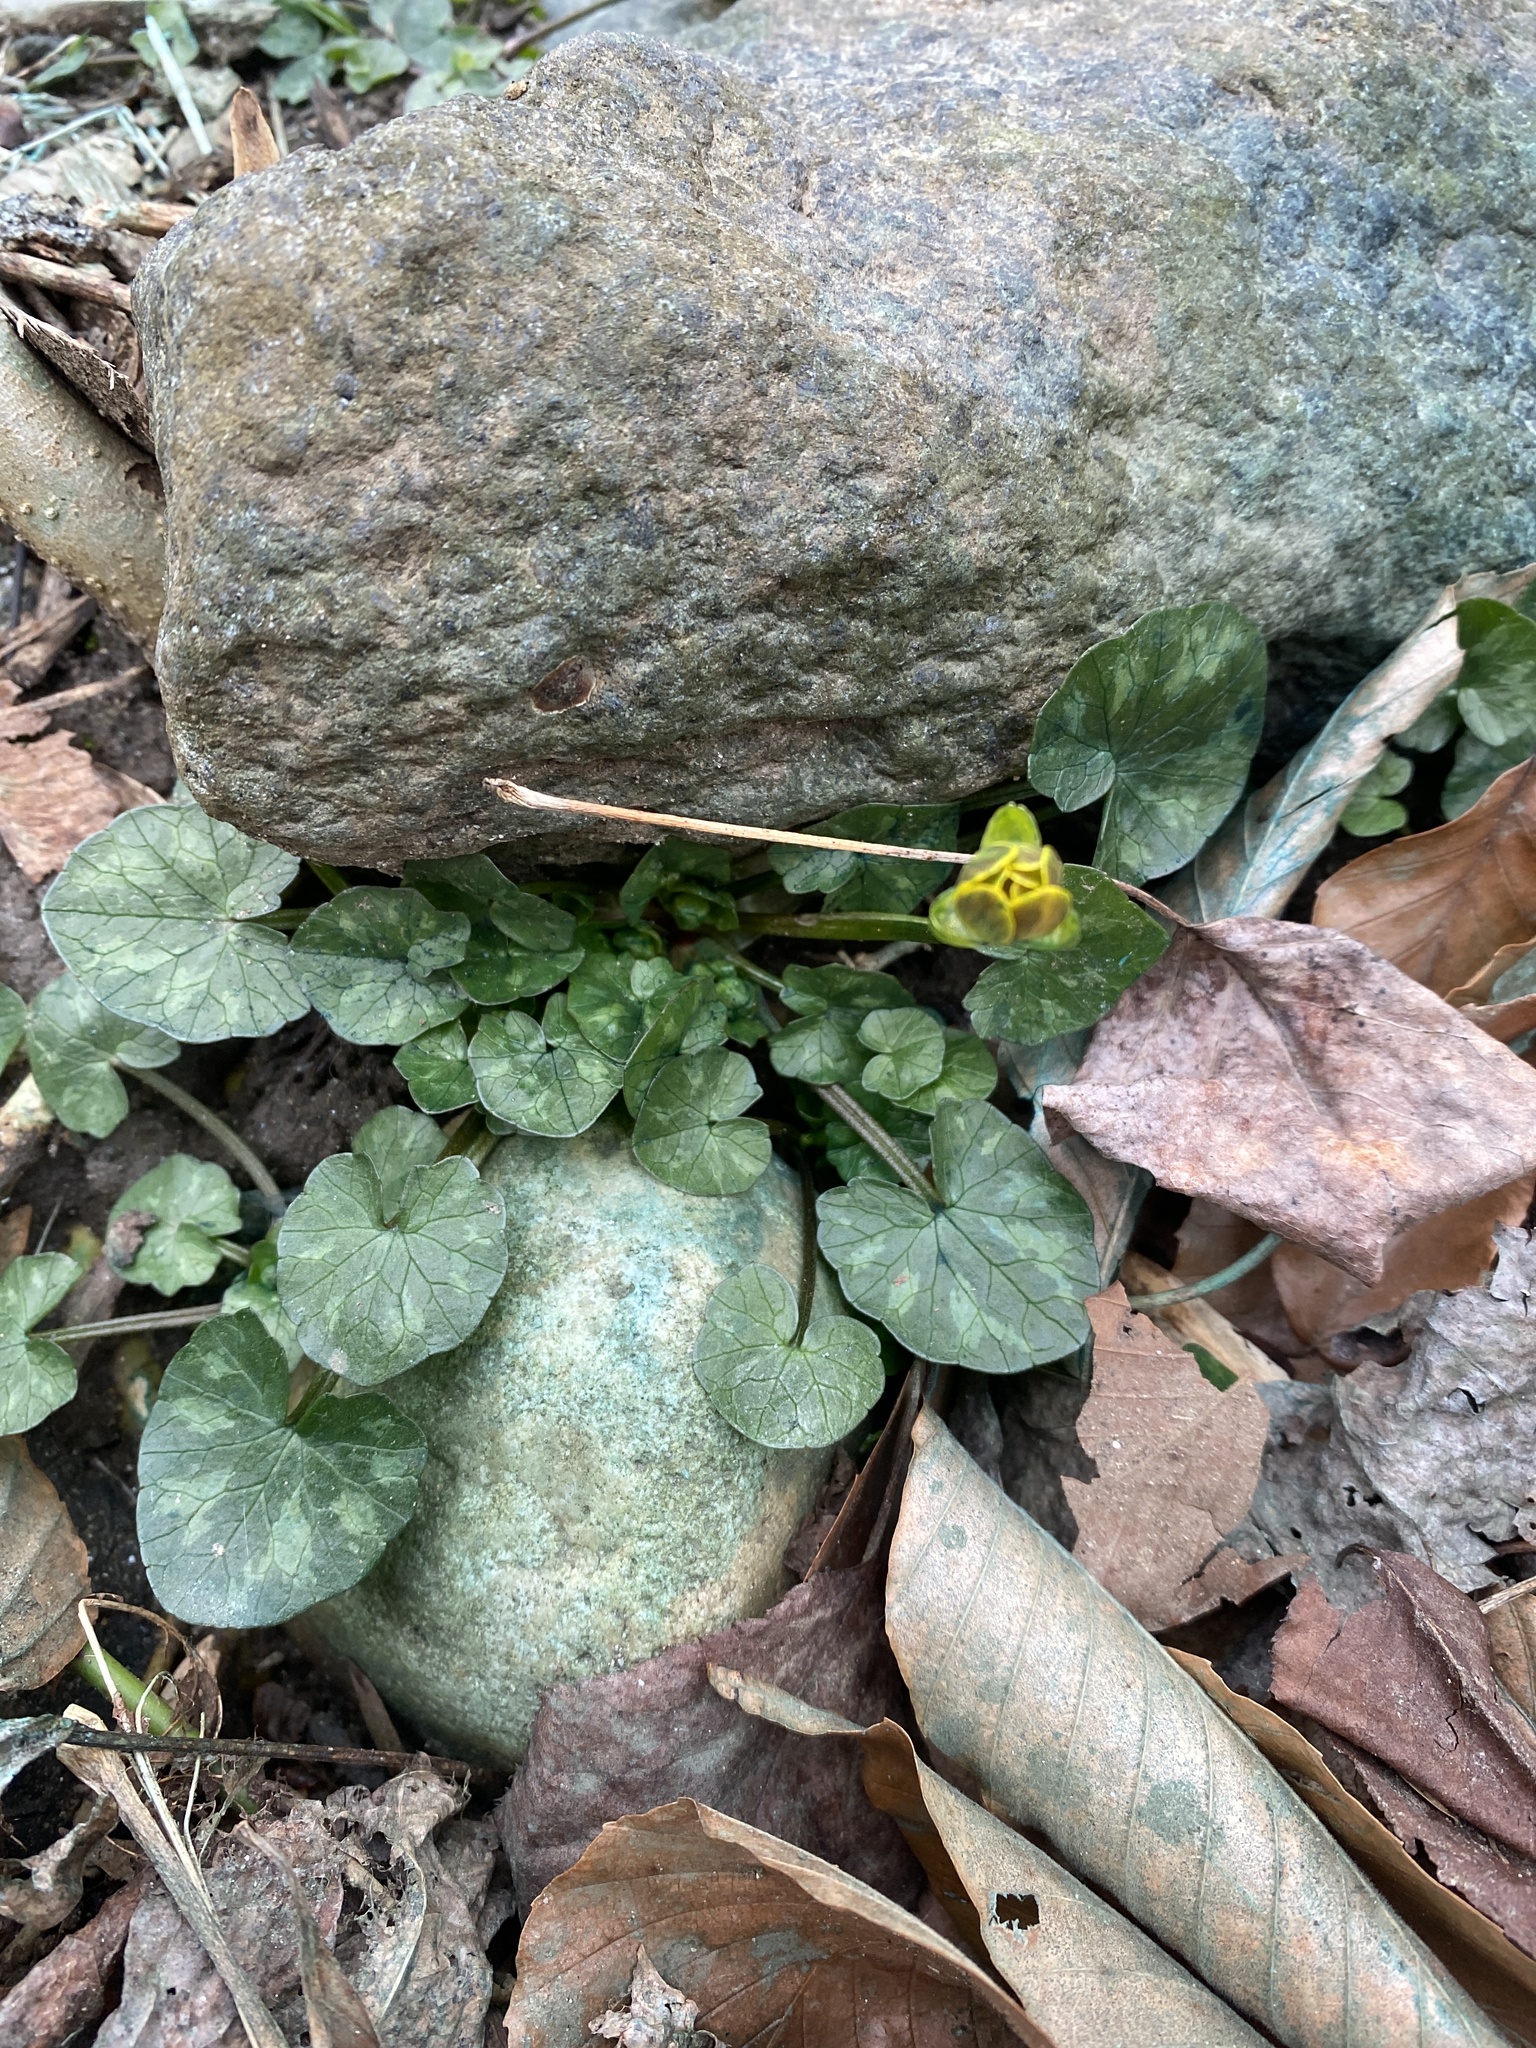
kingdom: Plantae
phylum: Tracheophyta
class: Magnoliopsida
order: Ranunculales
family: Ranunculaceae
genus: Ficaria
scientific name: Ficaria verna
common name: Lesser celandine
